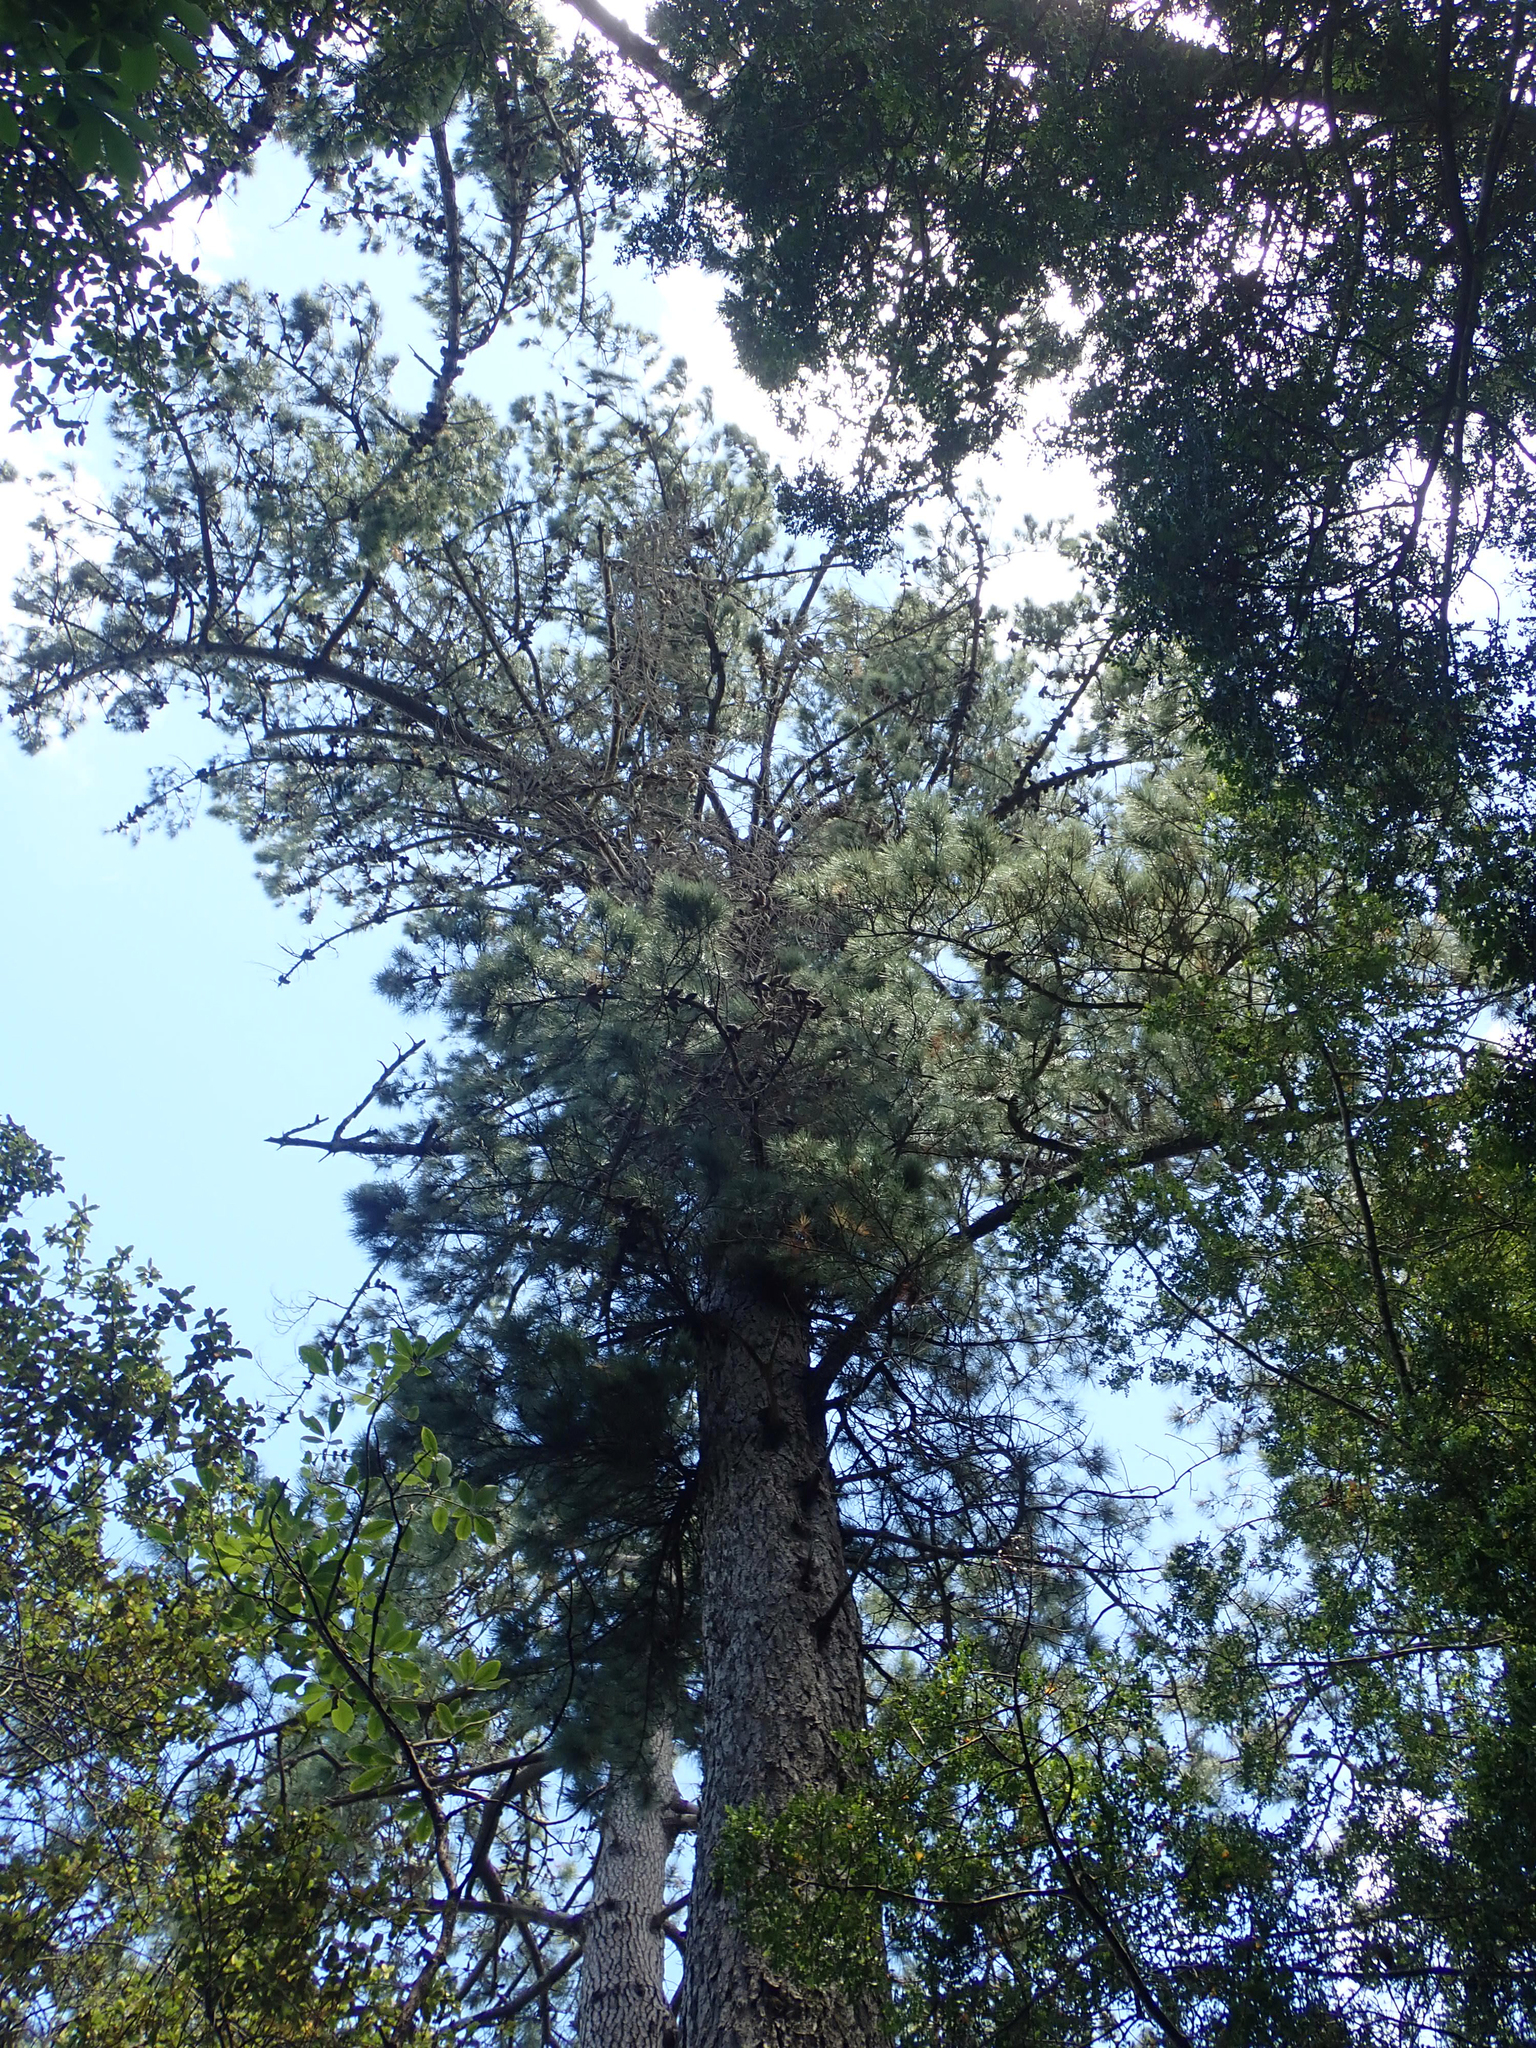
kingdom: Plantae
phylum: Tracheophyta
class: Pinopsida
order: Pinales
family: Pinaceae
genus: Pinus
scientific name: Pinus pinaster
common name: Maritime pine
